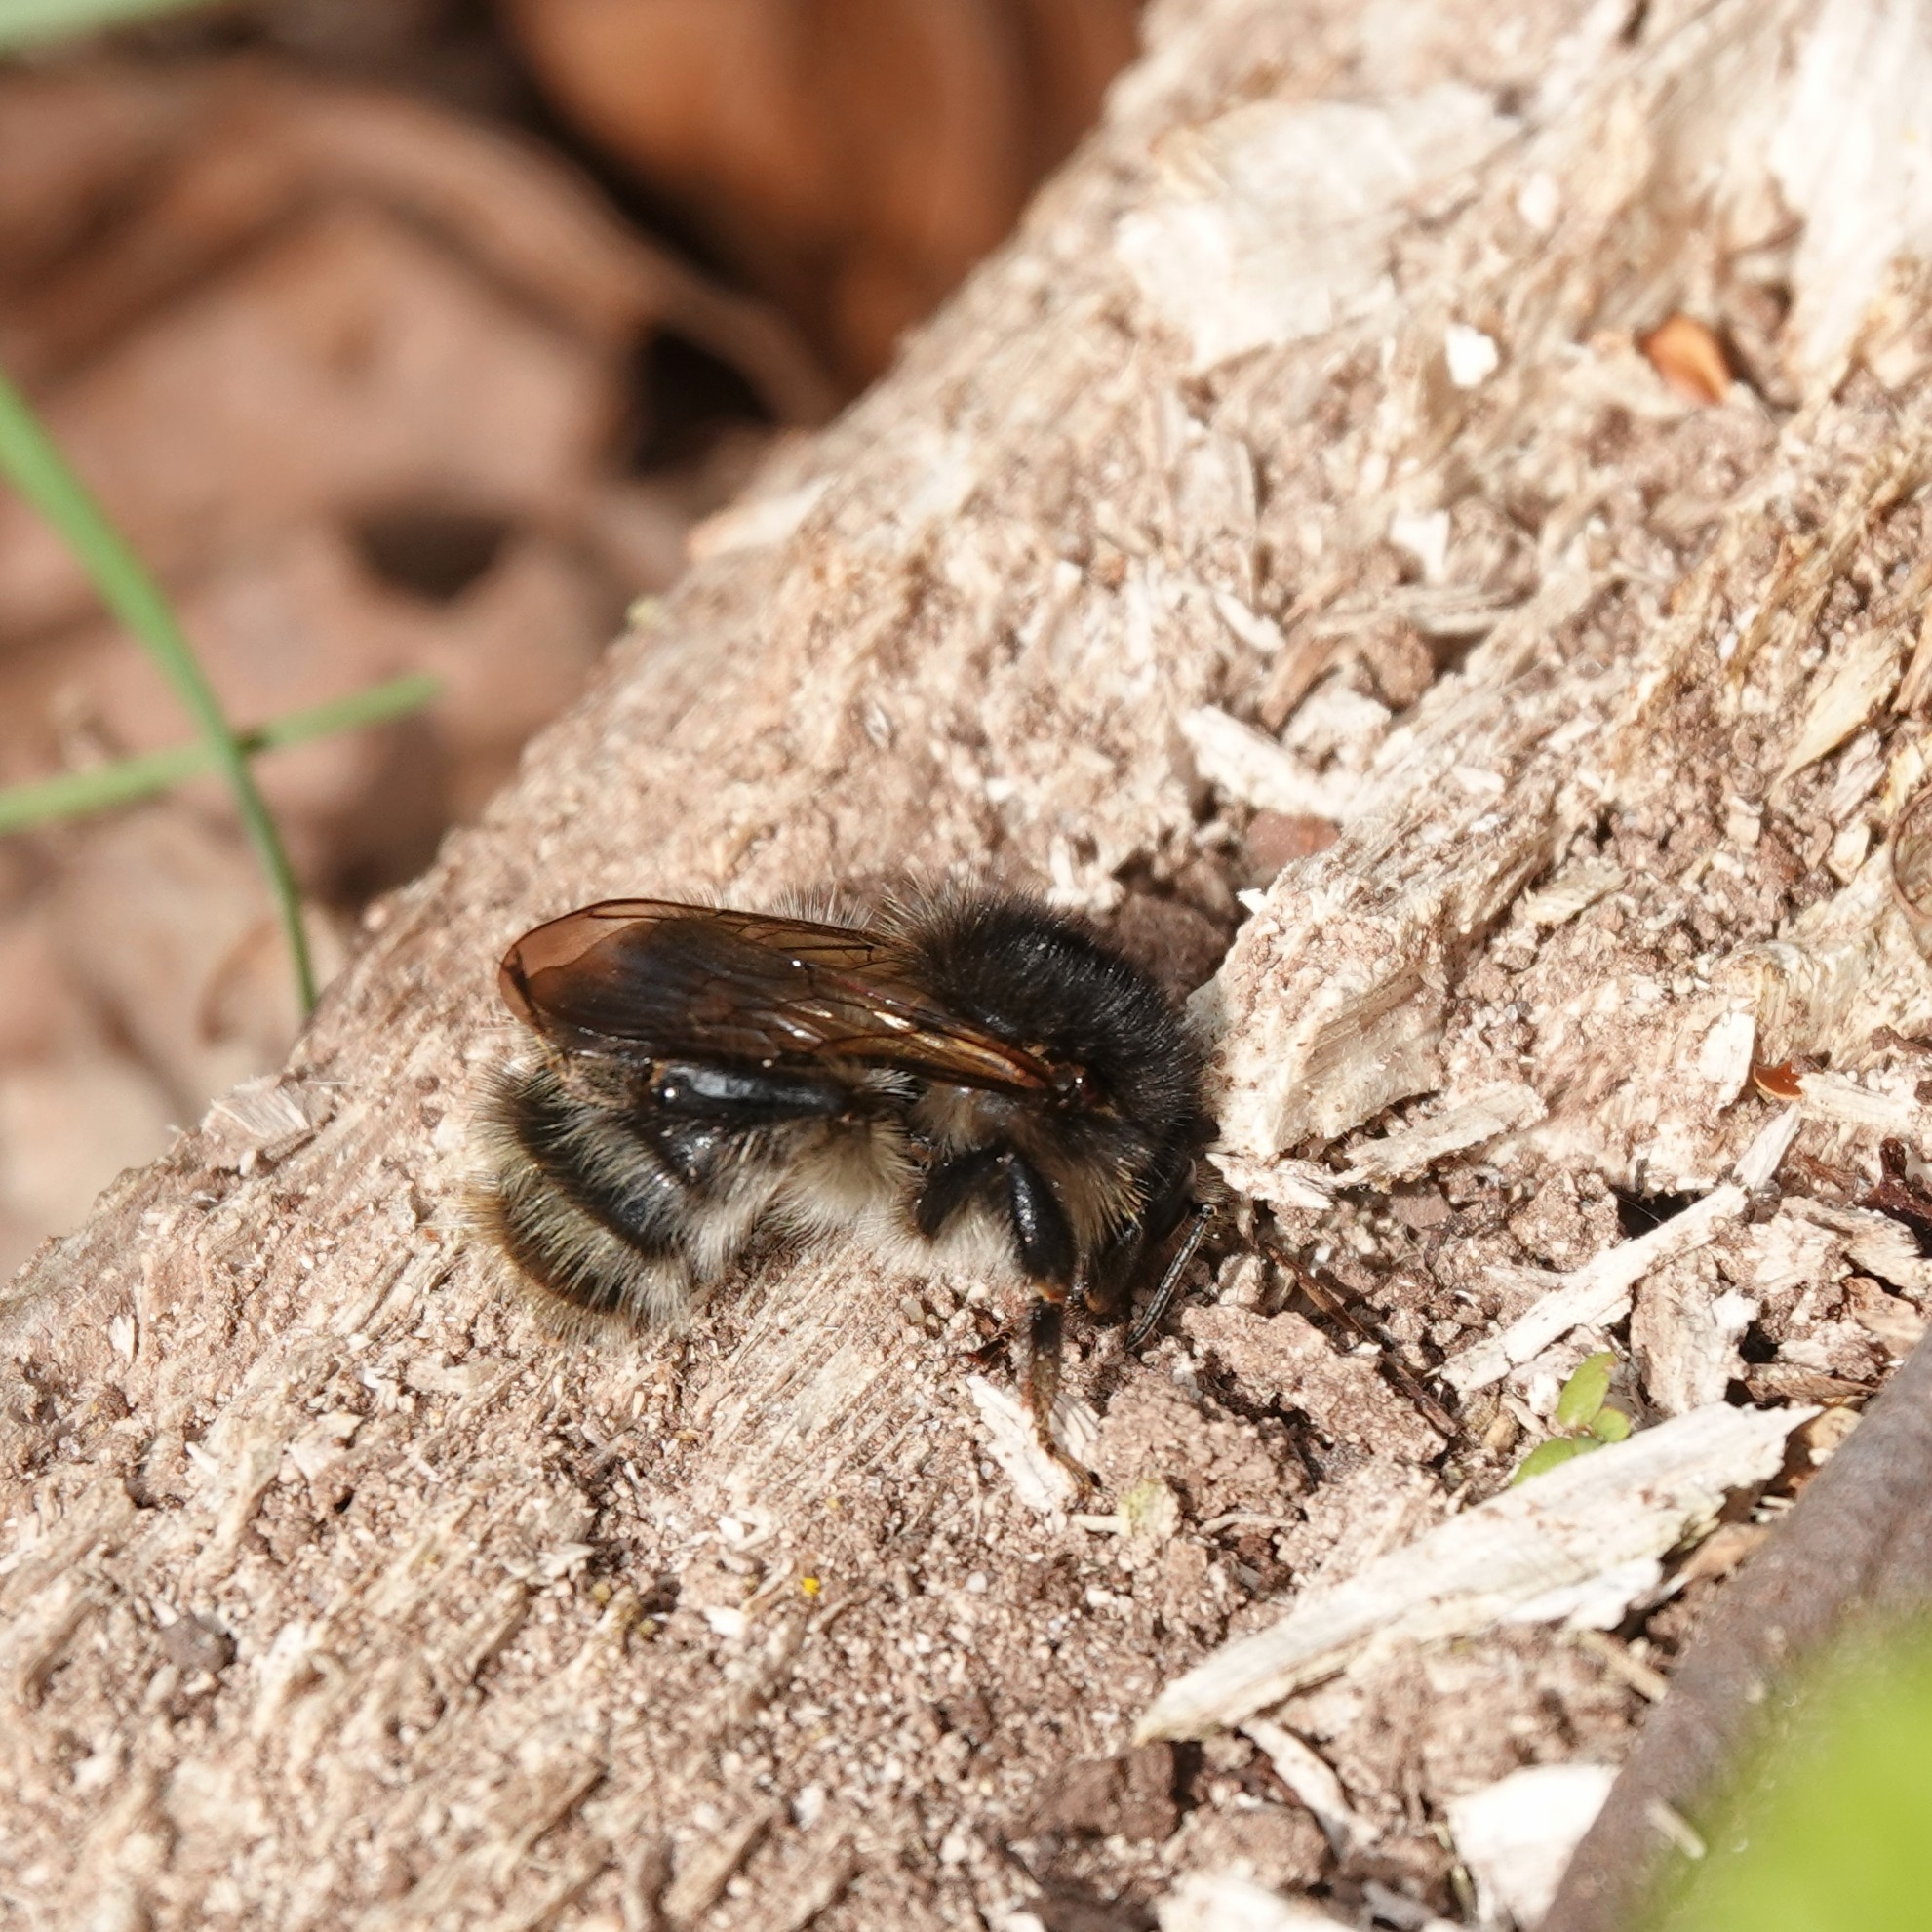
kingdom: Animalia
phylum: Arthropoda
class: Insecta
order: Hymenoptera
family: Apidae
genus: Bombus
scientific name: Bombus pascuorum
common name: Common carder bee
